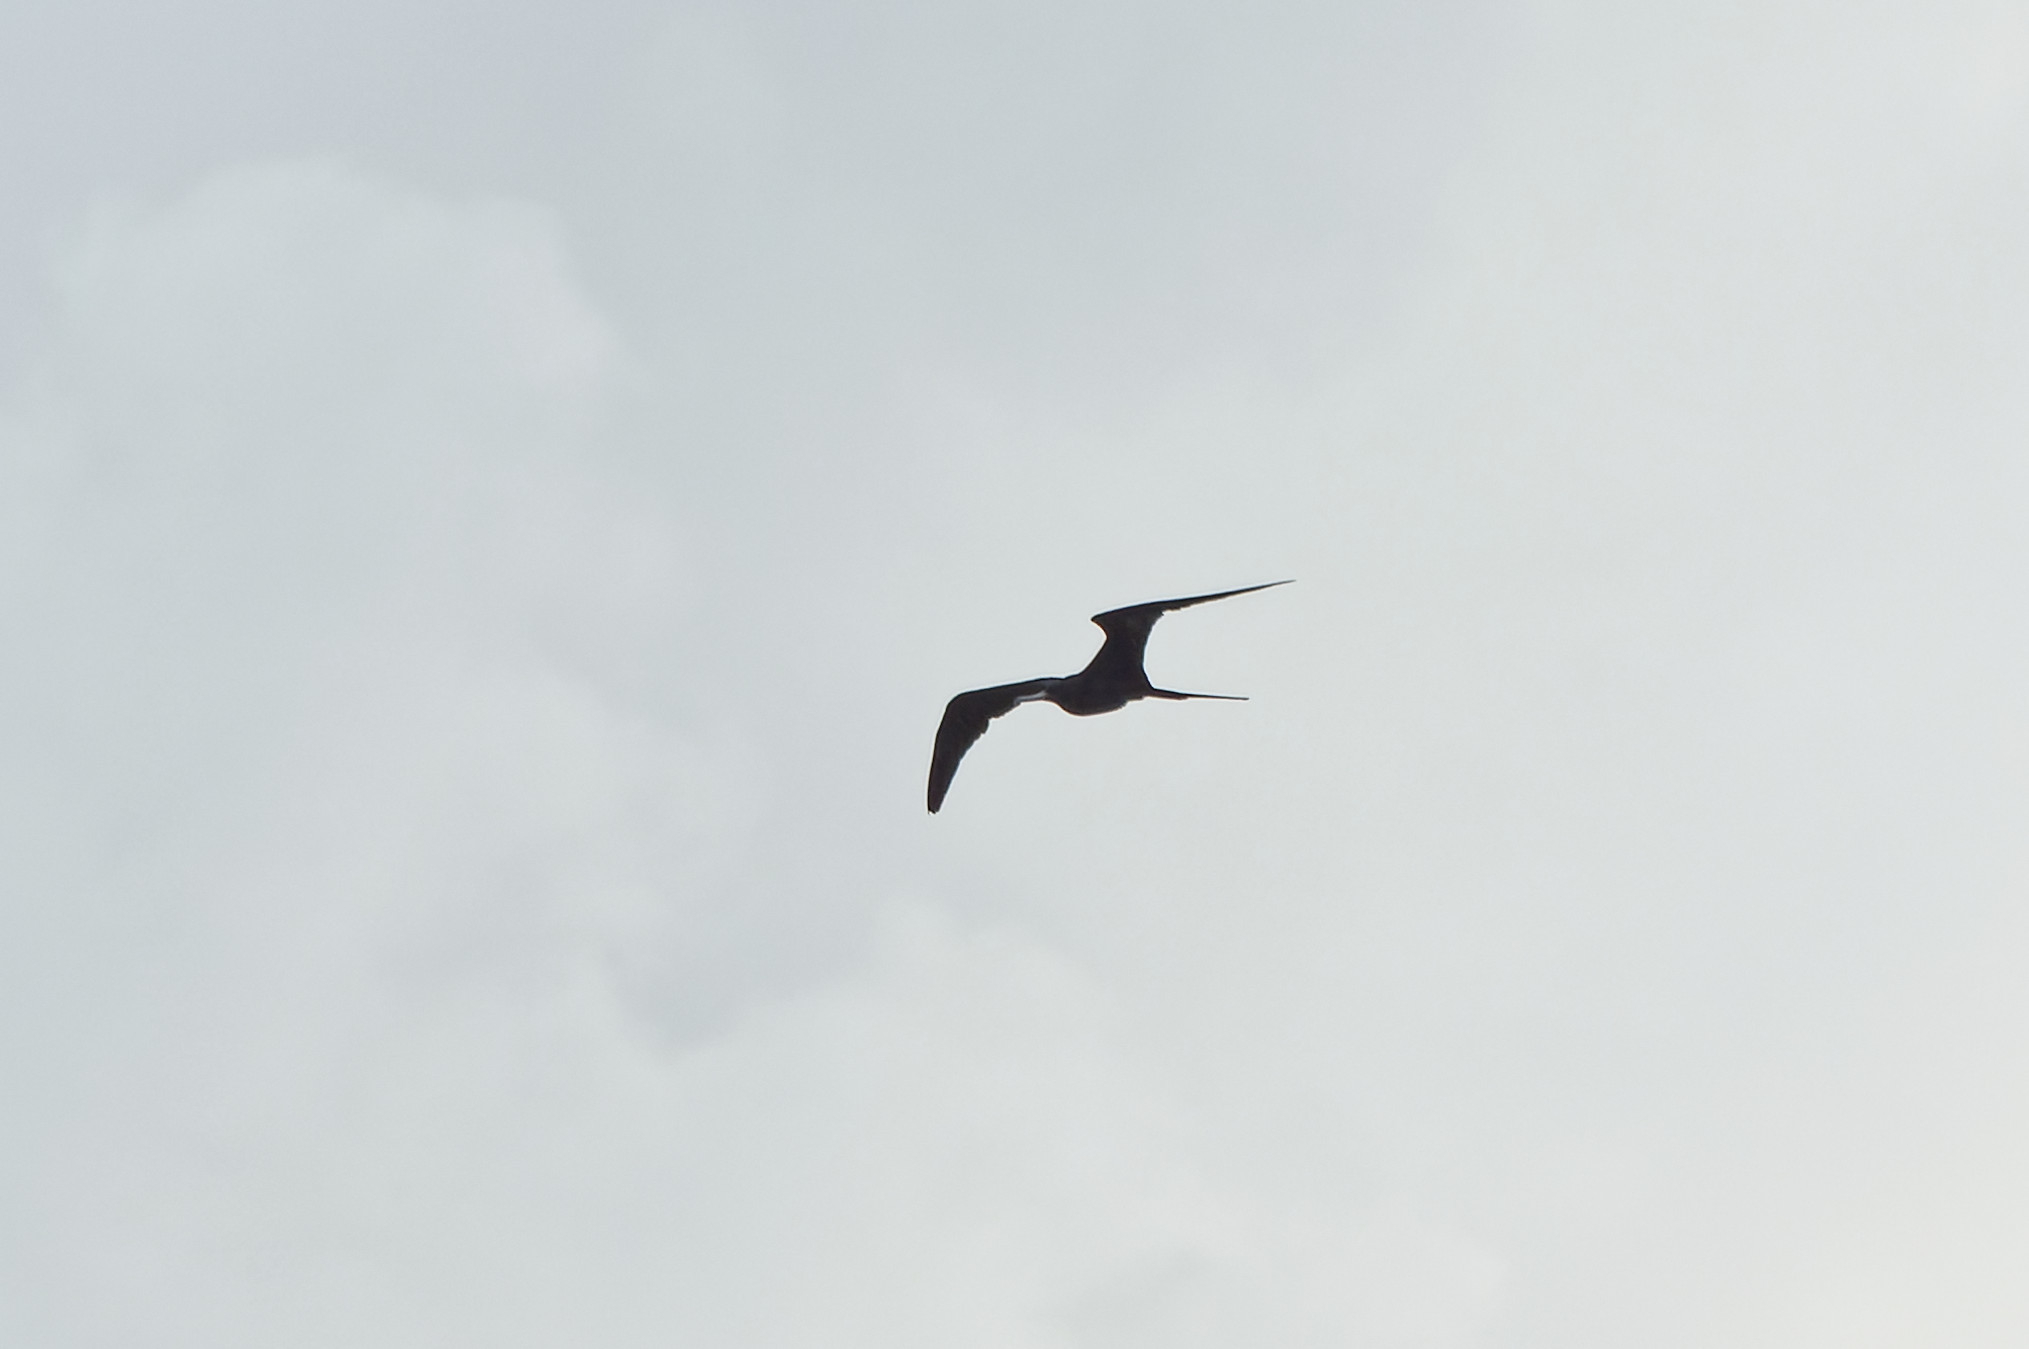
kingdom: Animalia
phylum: Chordata
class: Aves
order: Suliformes
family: Fregatidae
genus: Fregata
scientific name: Fregata magnificens
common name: Magnificent frigatebird
